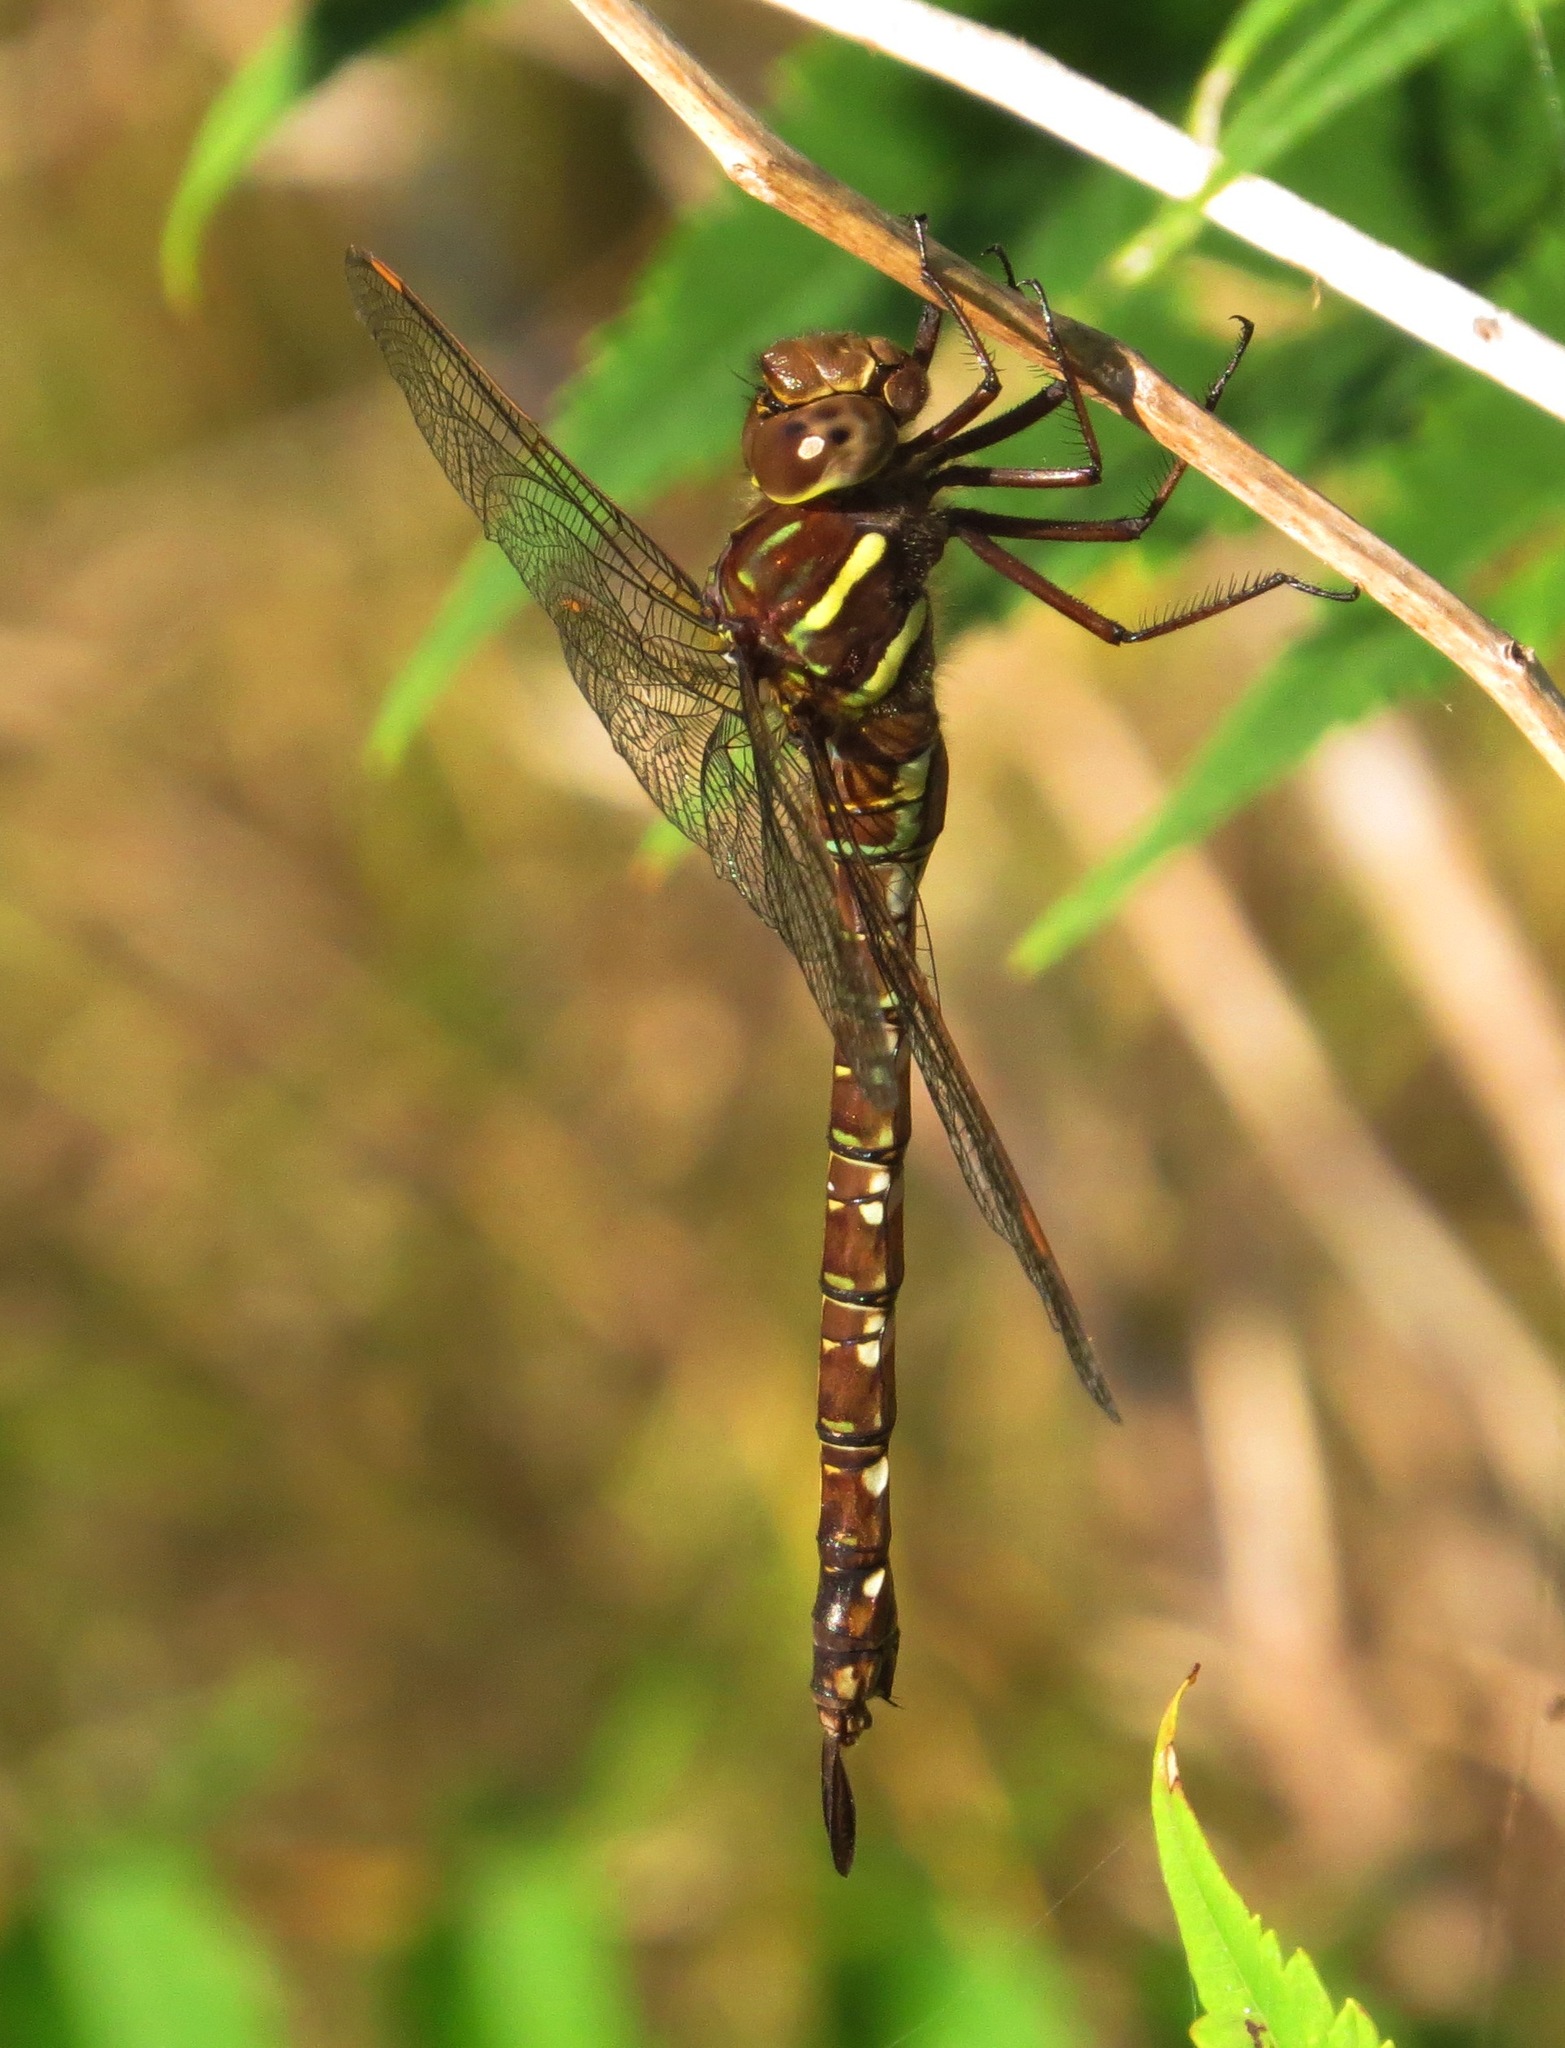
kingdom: Animalia
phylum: Arthropoda
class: Insecta
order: Odonata
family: Aeshnidae
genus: Aeshna
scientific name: Aeshna umbrosa
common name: Shadow darner
